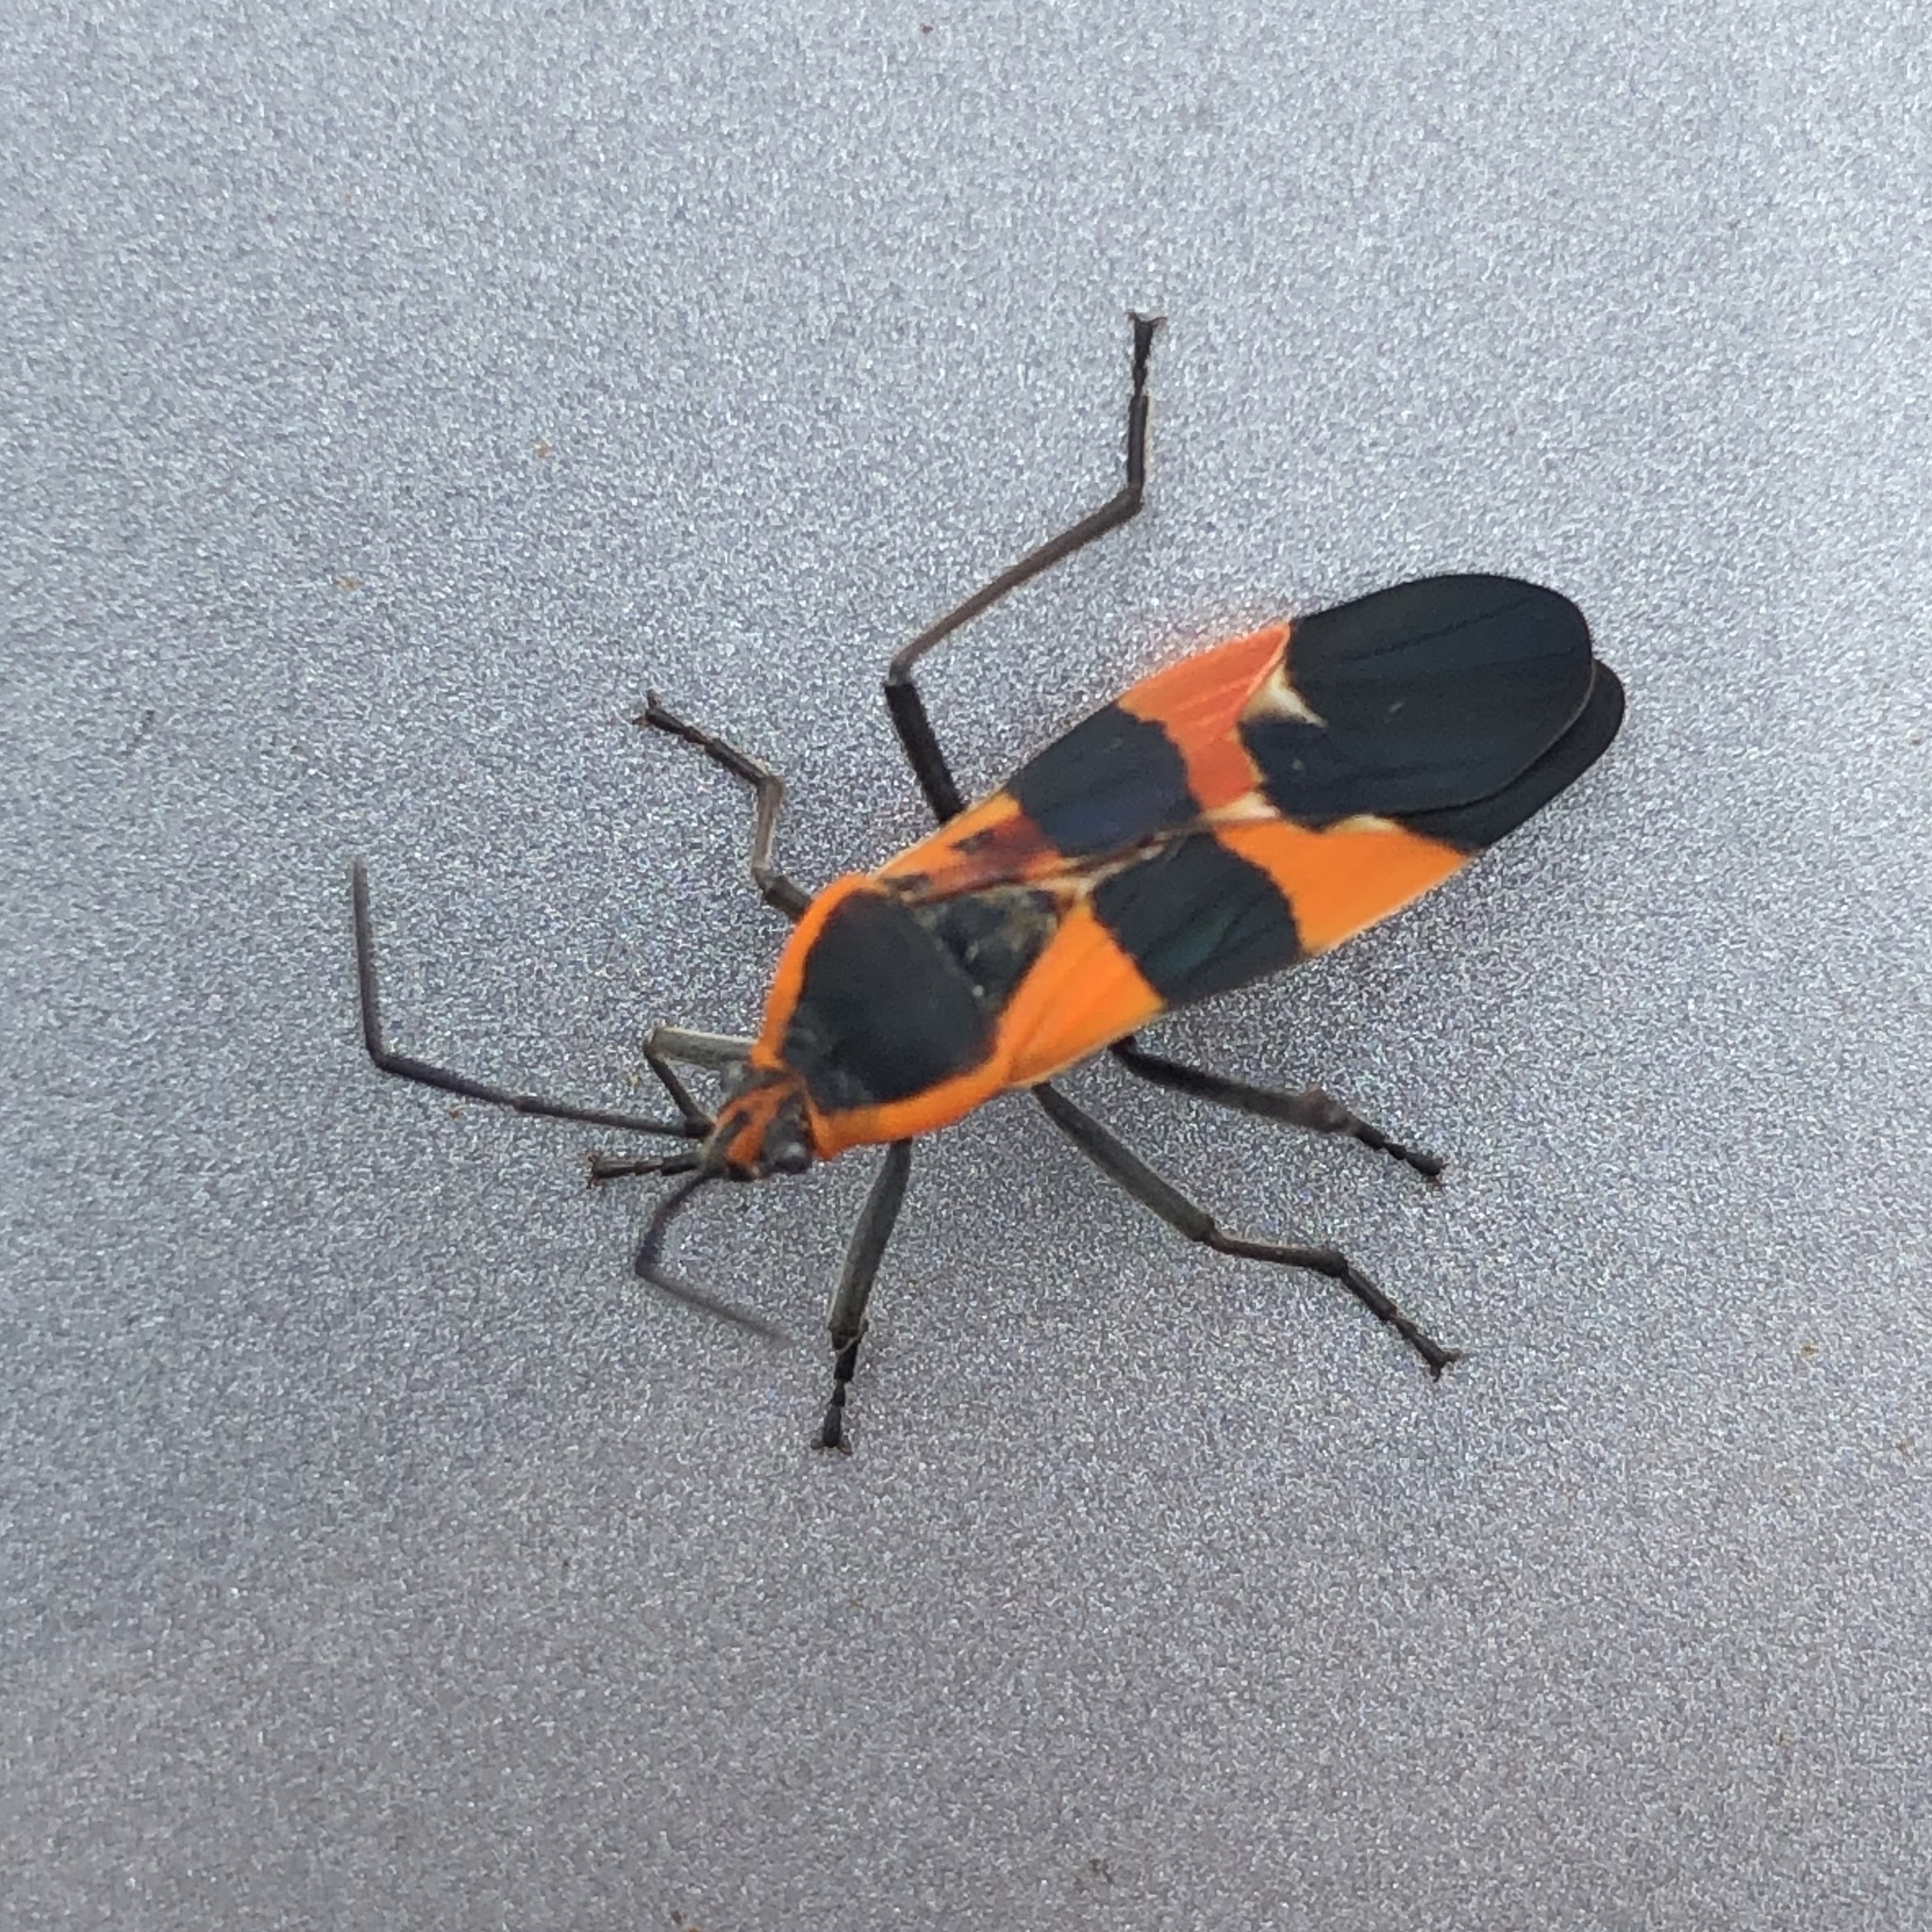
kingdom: Animalia
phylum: Arthropoda
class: Insecta
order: Hemiptera
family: Lygaeidae
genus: Oncopeltus
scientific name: Oncopeltus fasciatus
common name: Large milkweed bug
